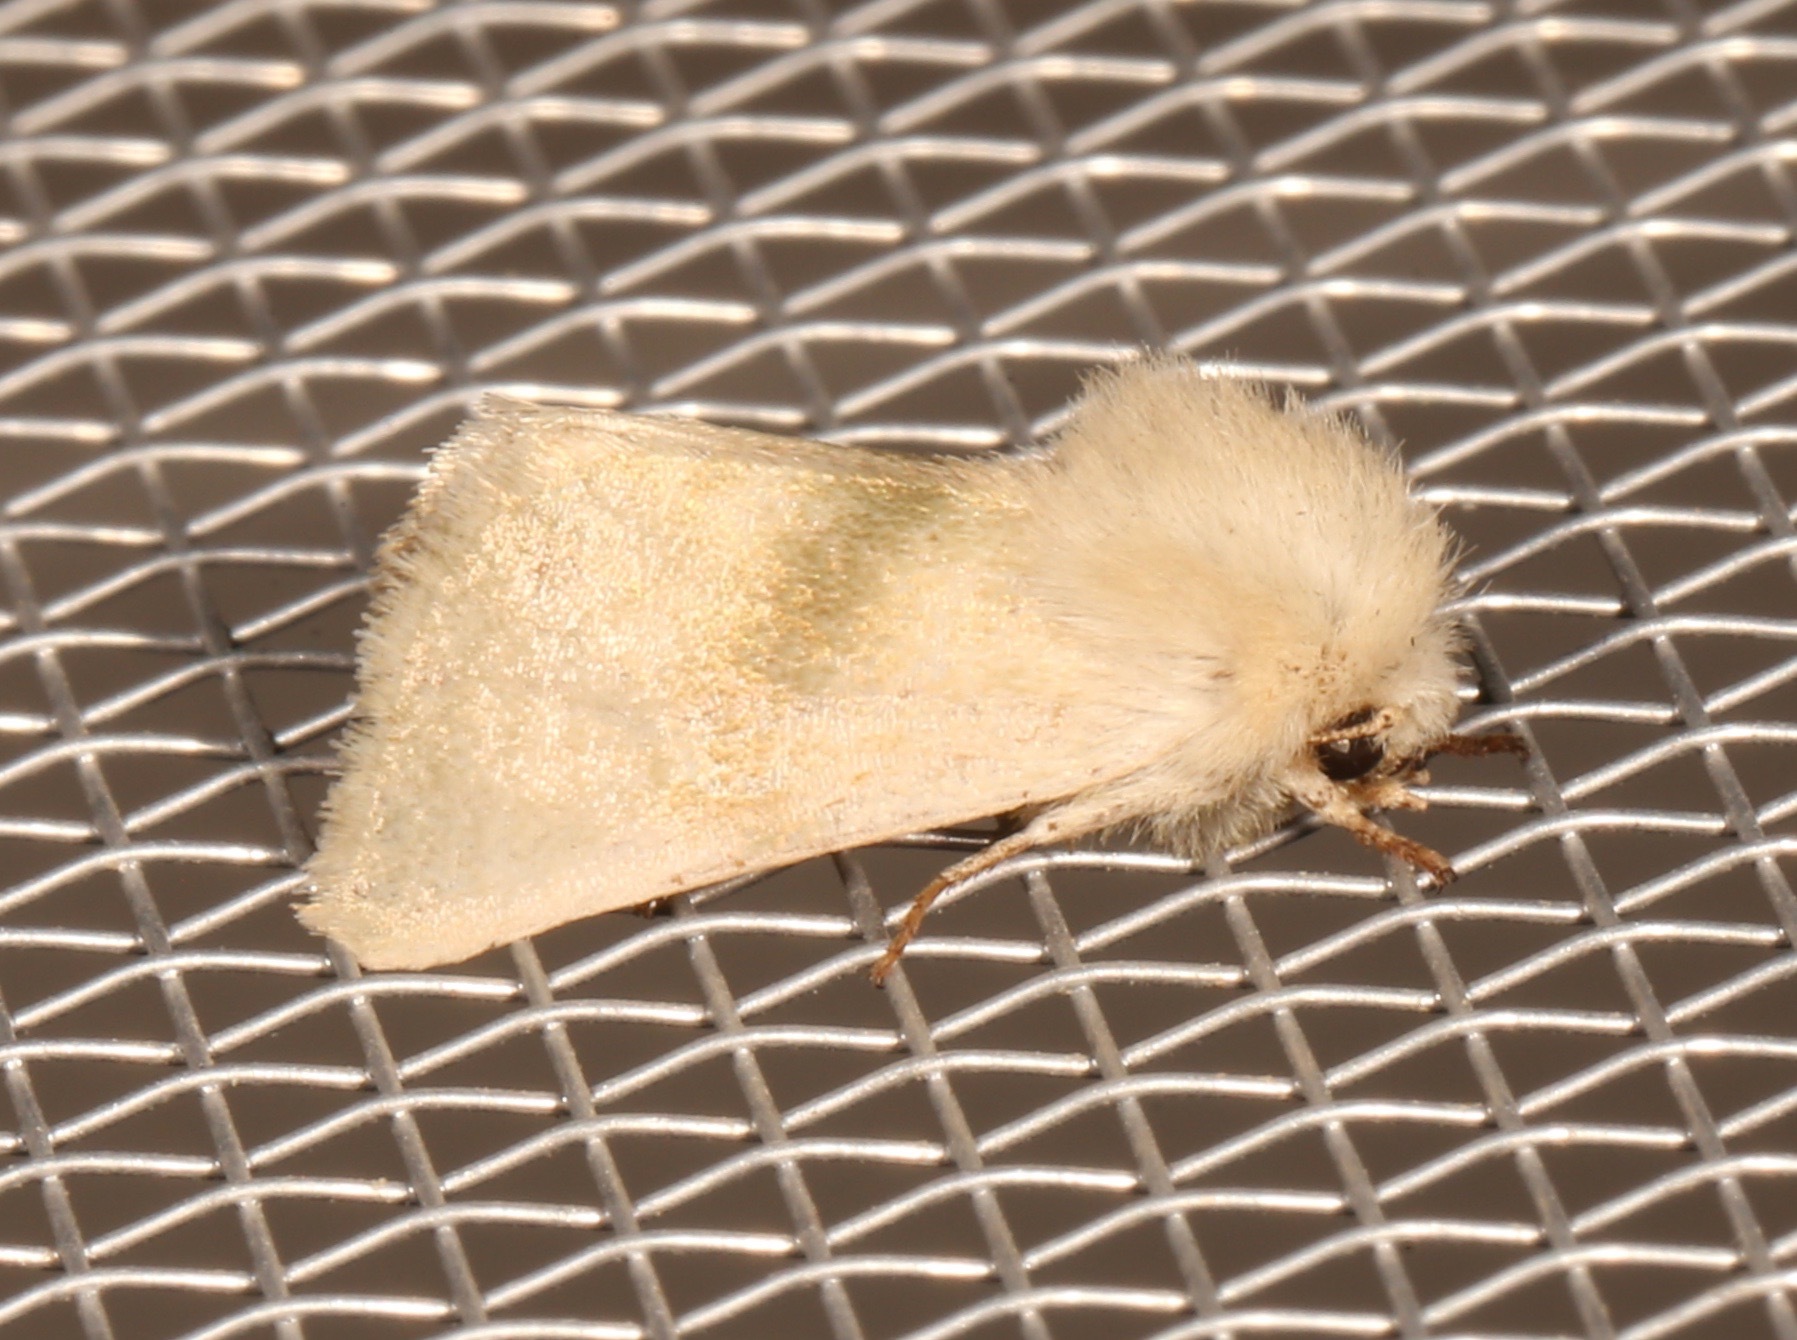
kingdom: Animalia
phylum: Arthropoda
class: Insecta
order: Lepidoptera
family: Noctuidae
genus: Nocloa
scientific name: Nocloa pallens
